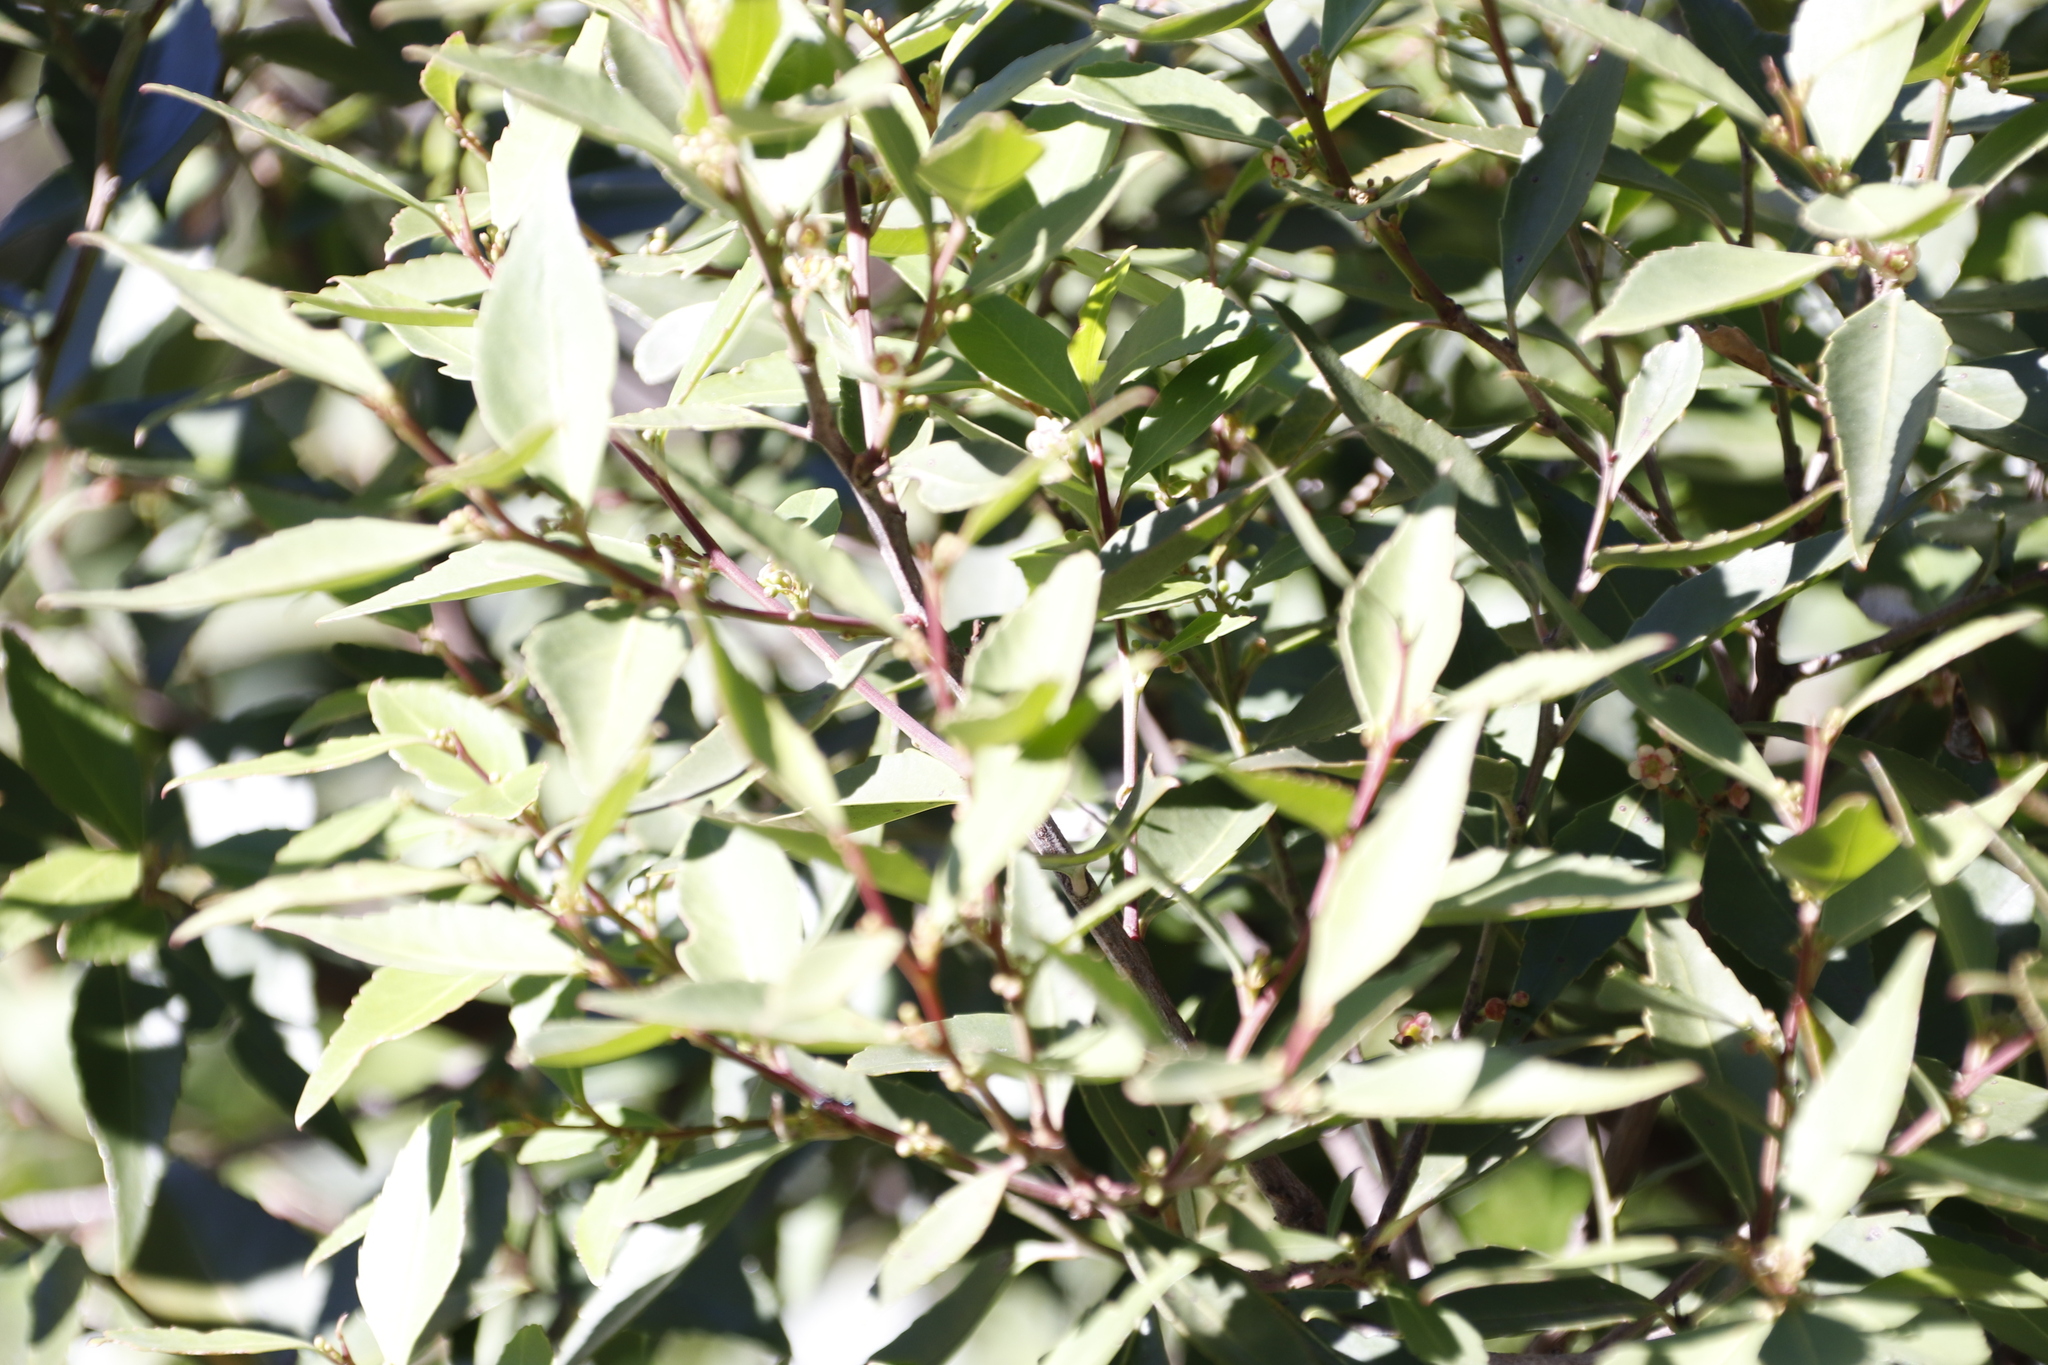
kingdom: Plantae
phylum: Tracheophyta
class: Magnoliopsida
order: Celastrales
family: Celastraceae
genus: Gymnosporia
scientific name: Gymnosporia acuminata
